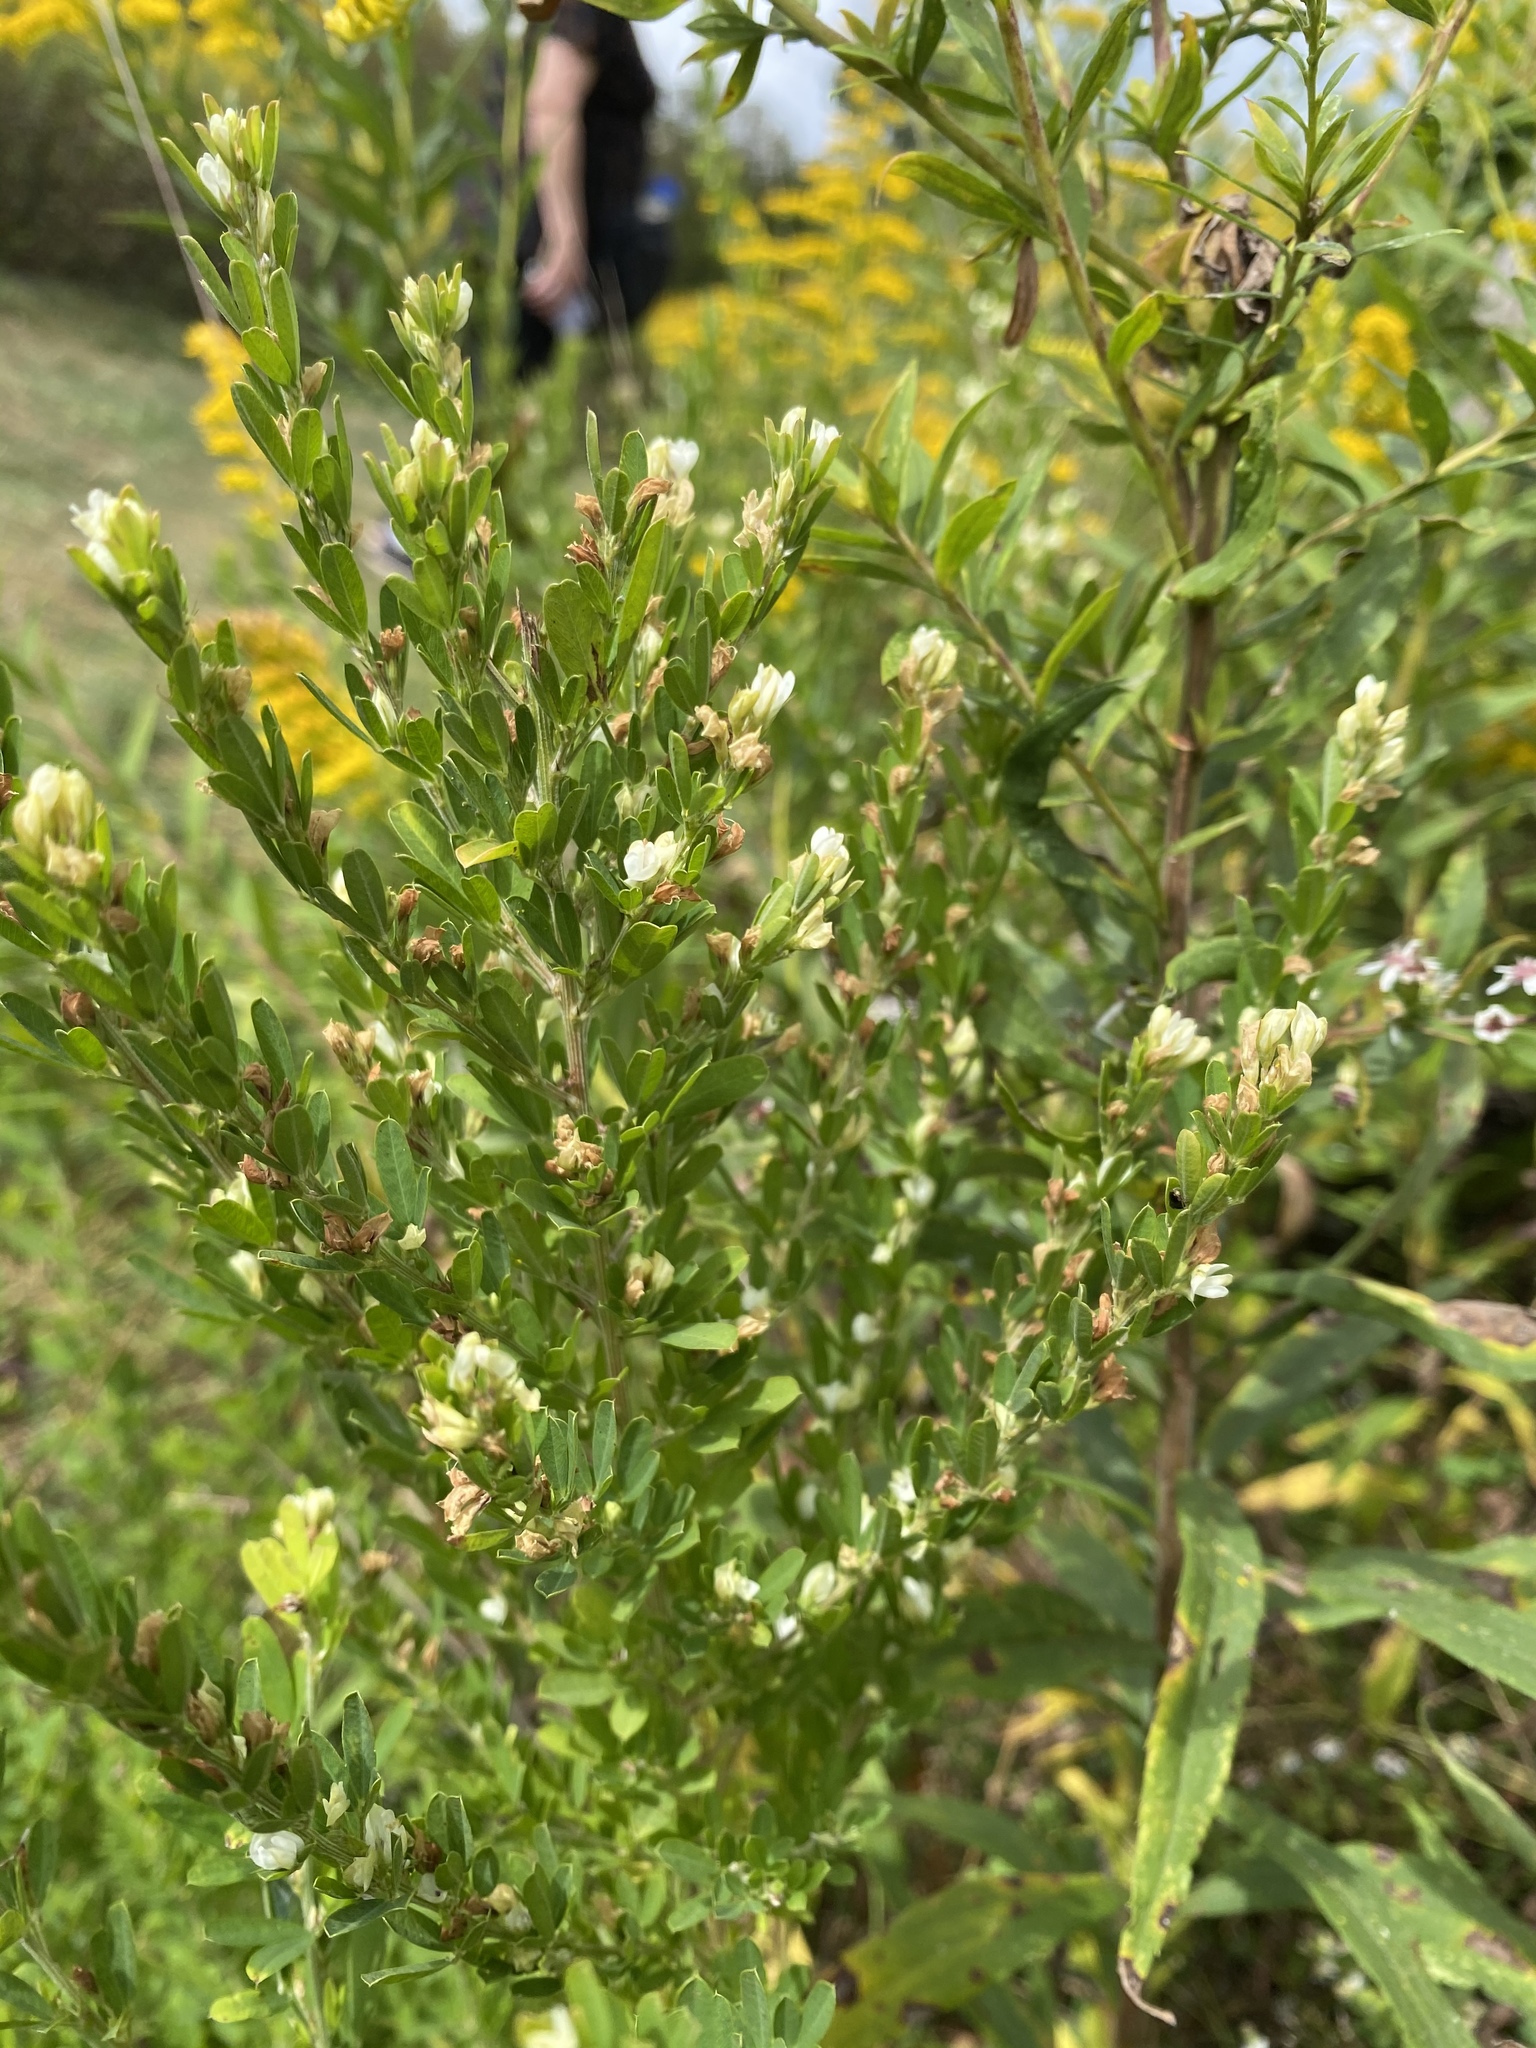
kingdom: Plantae
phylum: Tracheophyta
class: Magnoliopsida
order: Fabales
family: Fabaceae
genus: Lespedeza
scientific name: Lespedeza cuneata
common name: Chinese bush-clover
